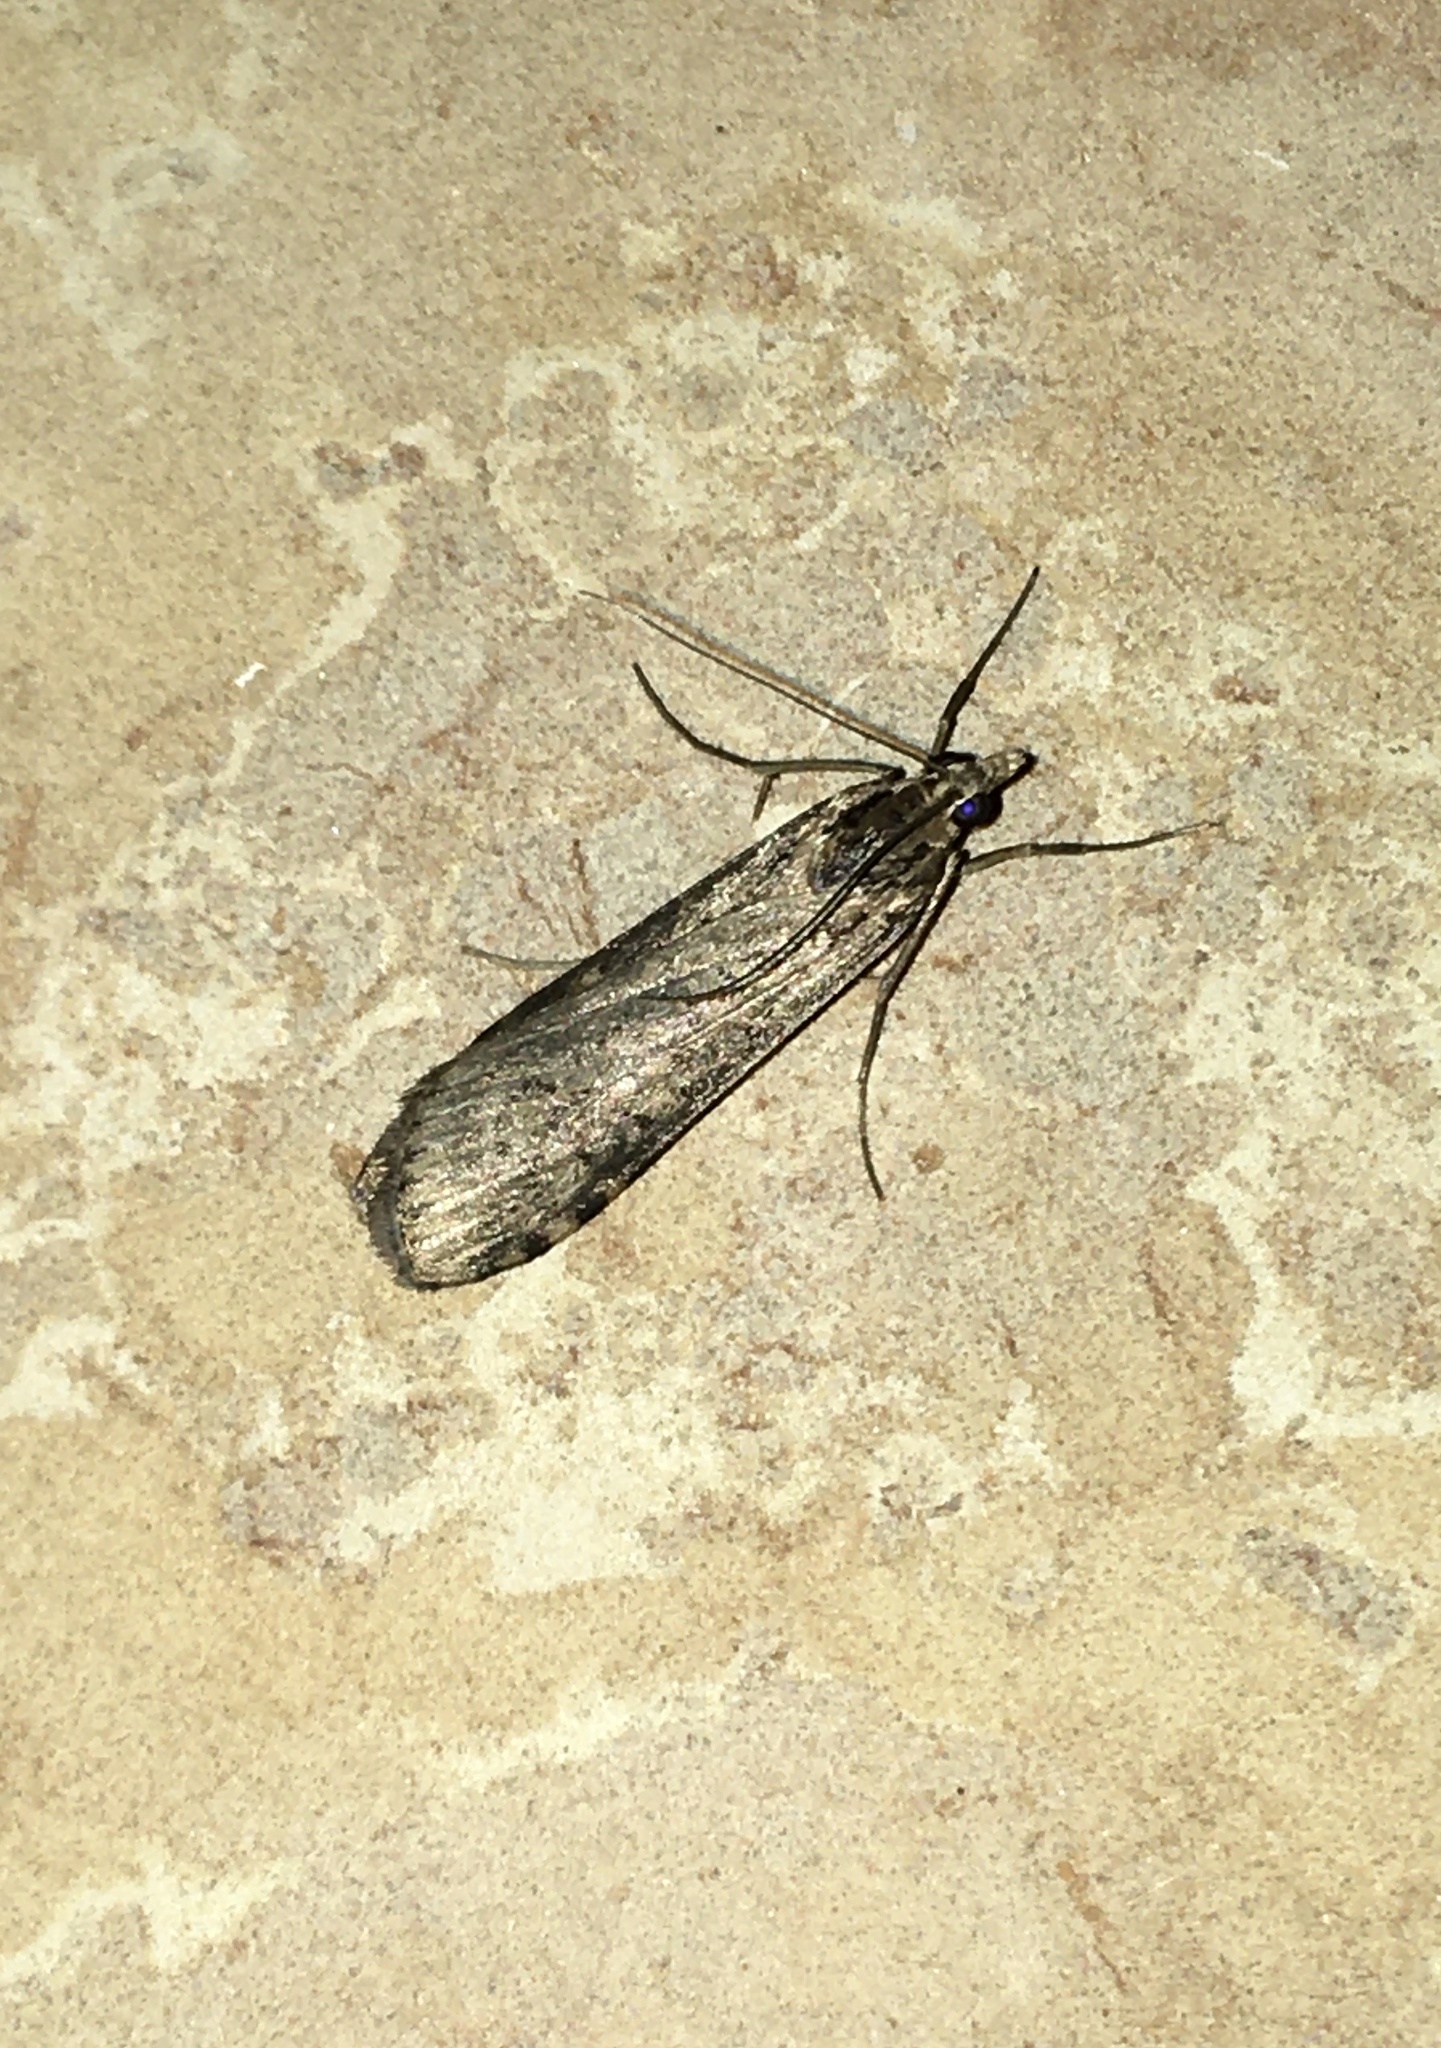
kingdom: Animalia
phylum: Arthropoda
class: Insecta
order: Lepidoptera
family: Crambidae
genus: Nomophila
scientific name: Nomophila nearctica
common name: American rush veneer
